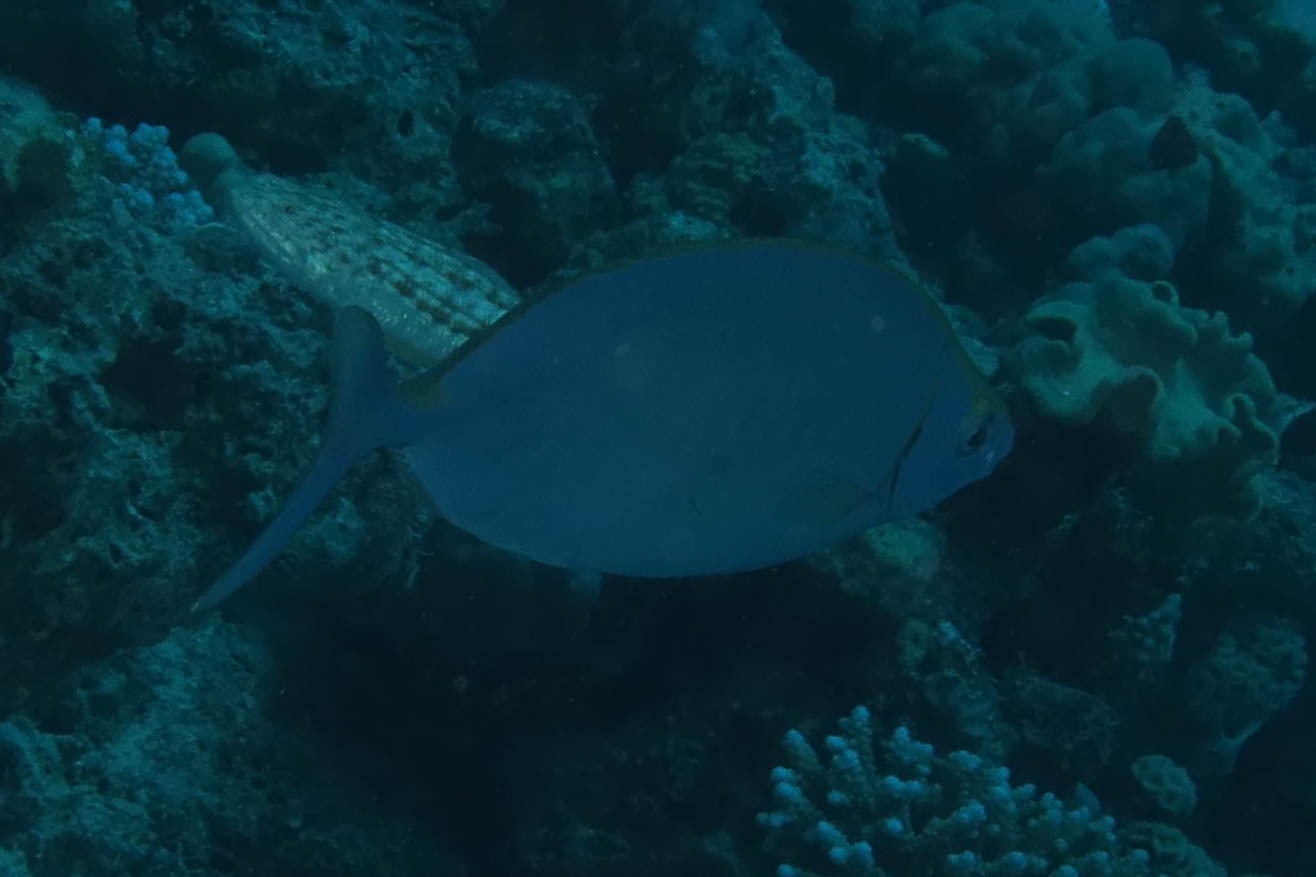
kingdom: Animalia
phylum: Chordata
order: Perciformes
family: Siganidae
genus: Siganus
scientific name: Siganus argenteus
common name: Forktail rabbitfish
